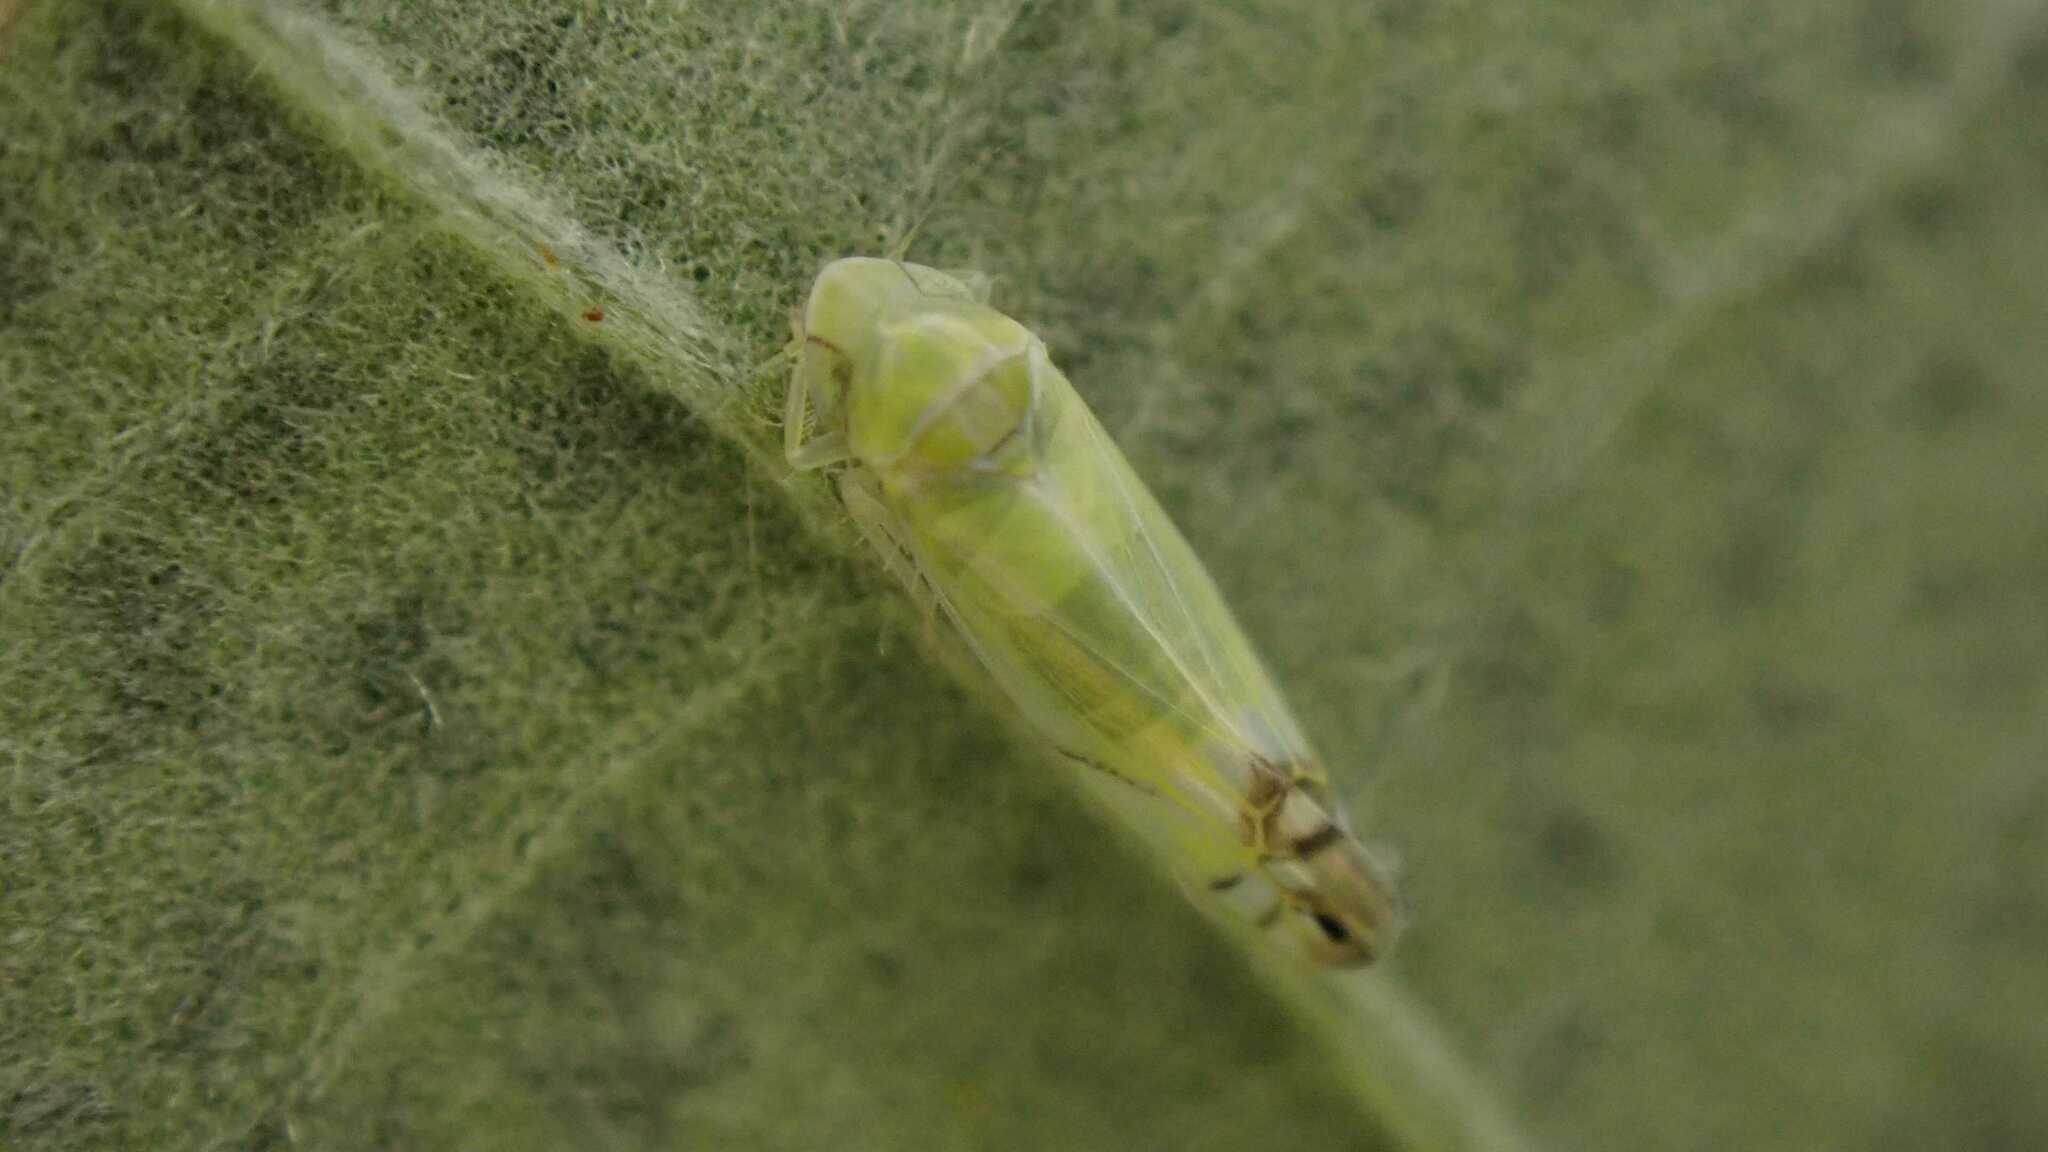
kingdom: Animalia
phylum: Arthropoda
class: Insecta
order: Hemiptera
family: Cicadellidae
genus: Zyginella
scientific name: Zyginella pulchra
